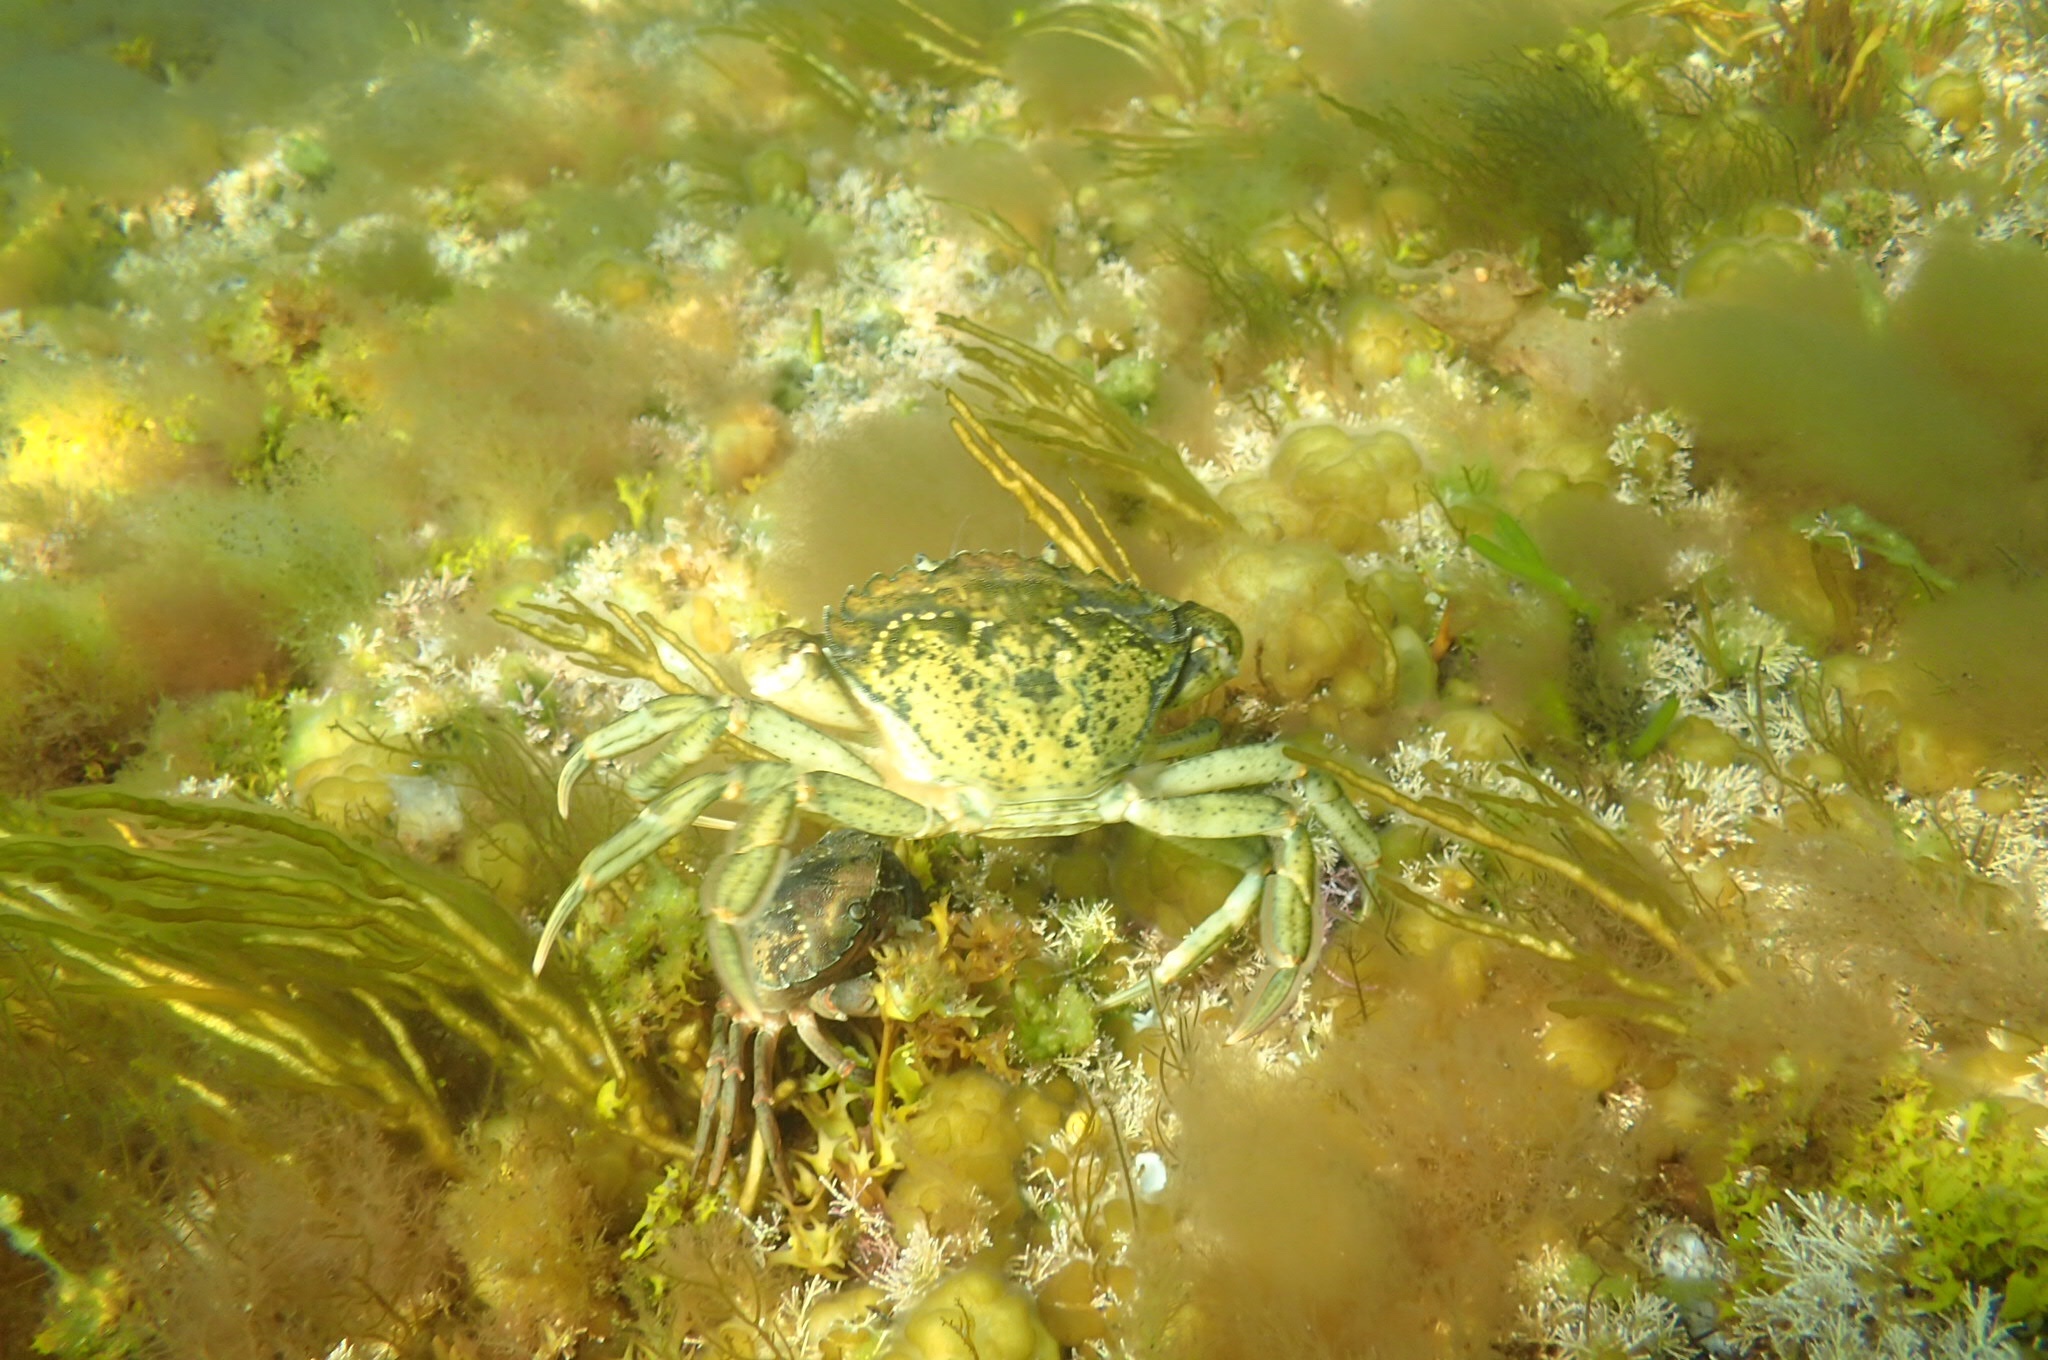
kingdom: Animalia
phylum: Arthropoda
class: Malacostraca
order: Decapoda
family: Carcinidae
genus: Carcinus
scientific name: Carcinus maenas
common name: European green crab
